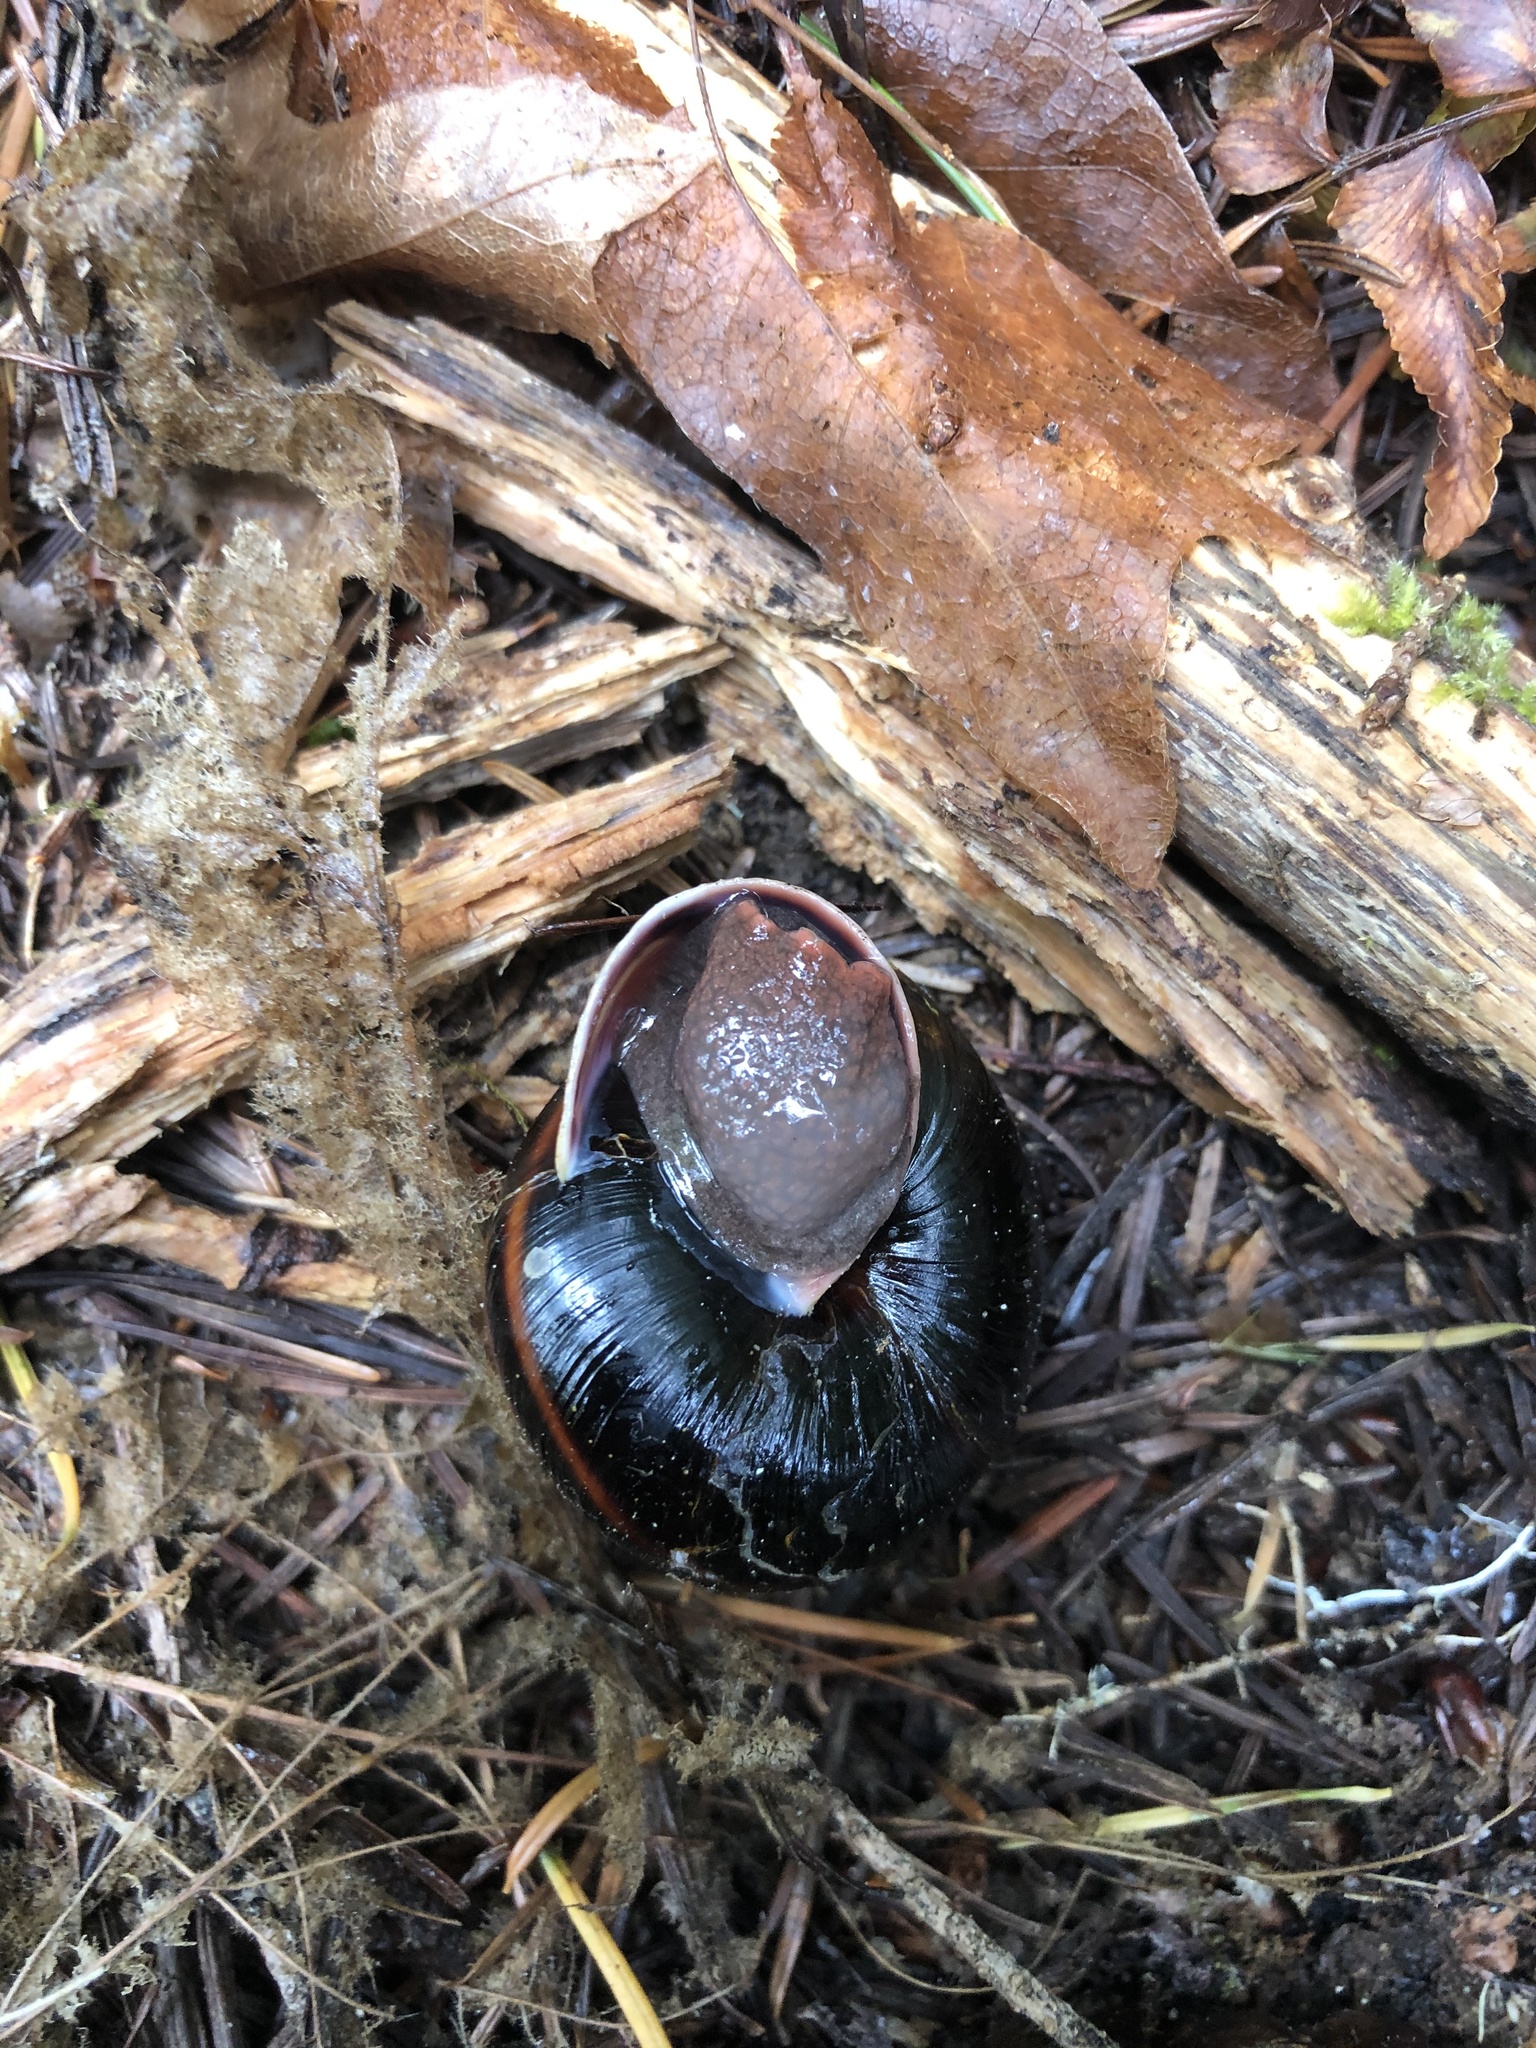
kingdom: Animalia
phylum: Mollusca
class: Gastropoda
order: Stylommatophora
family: Xanthonychidae
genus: Monadenia
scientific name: Monadenia fidelis
